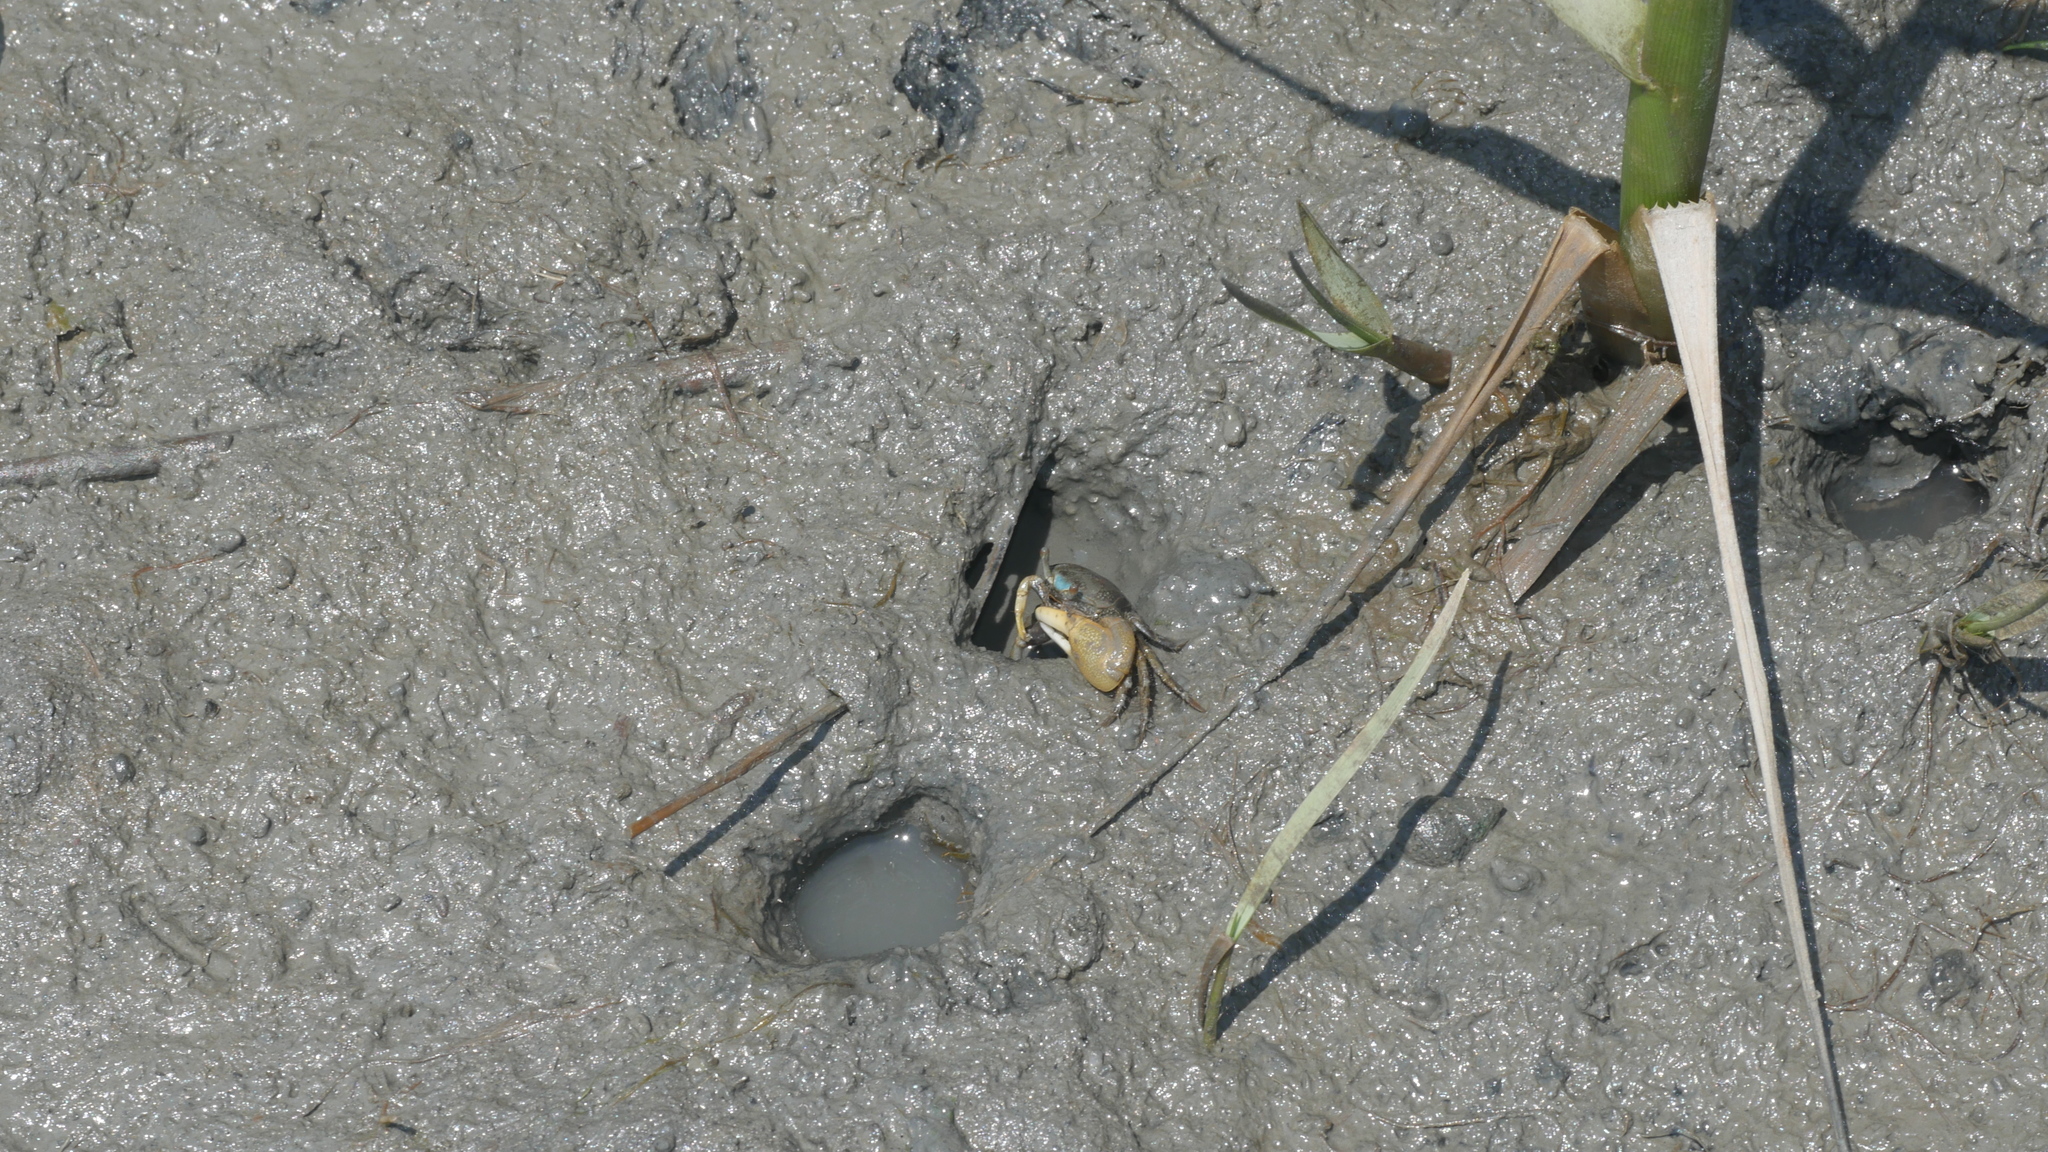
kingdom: Animalia
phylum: Arthropoda
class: Malacostraca
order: Decapoda
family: Ocypodidae
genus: Minuca
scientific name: Minuca pugnax
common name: Mud fiddler crab
